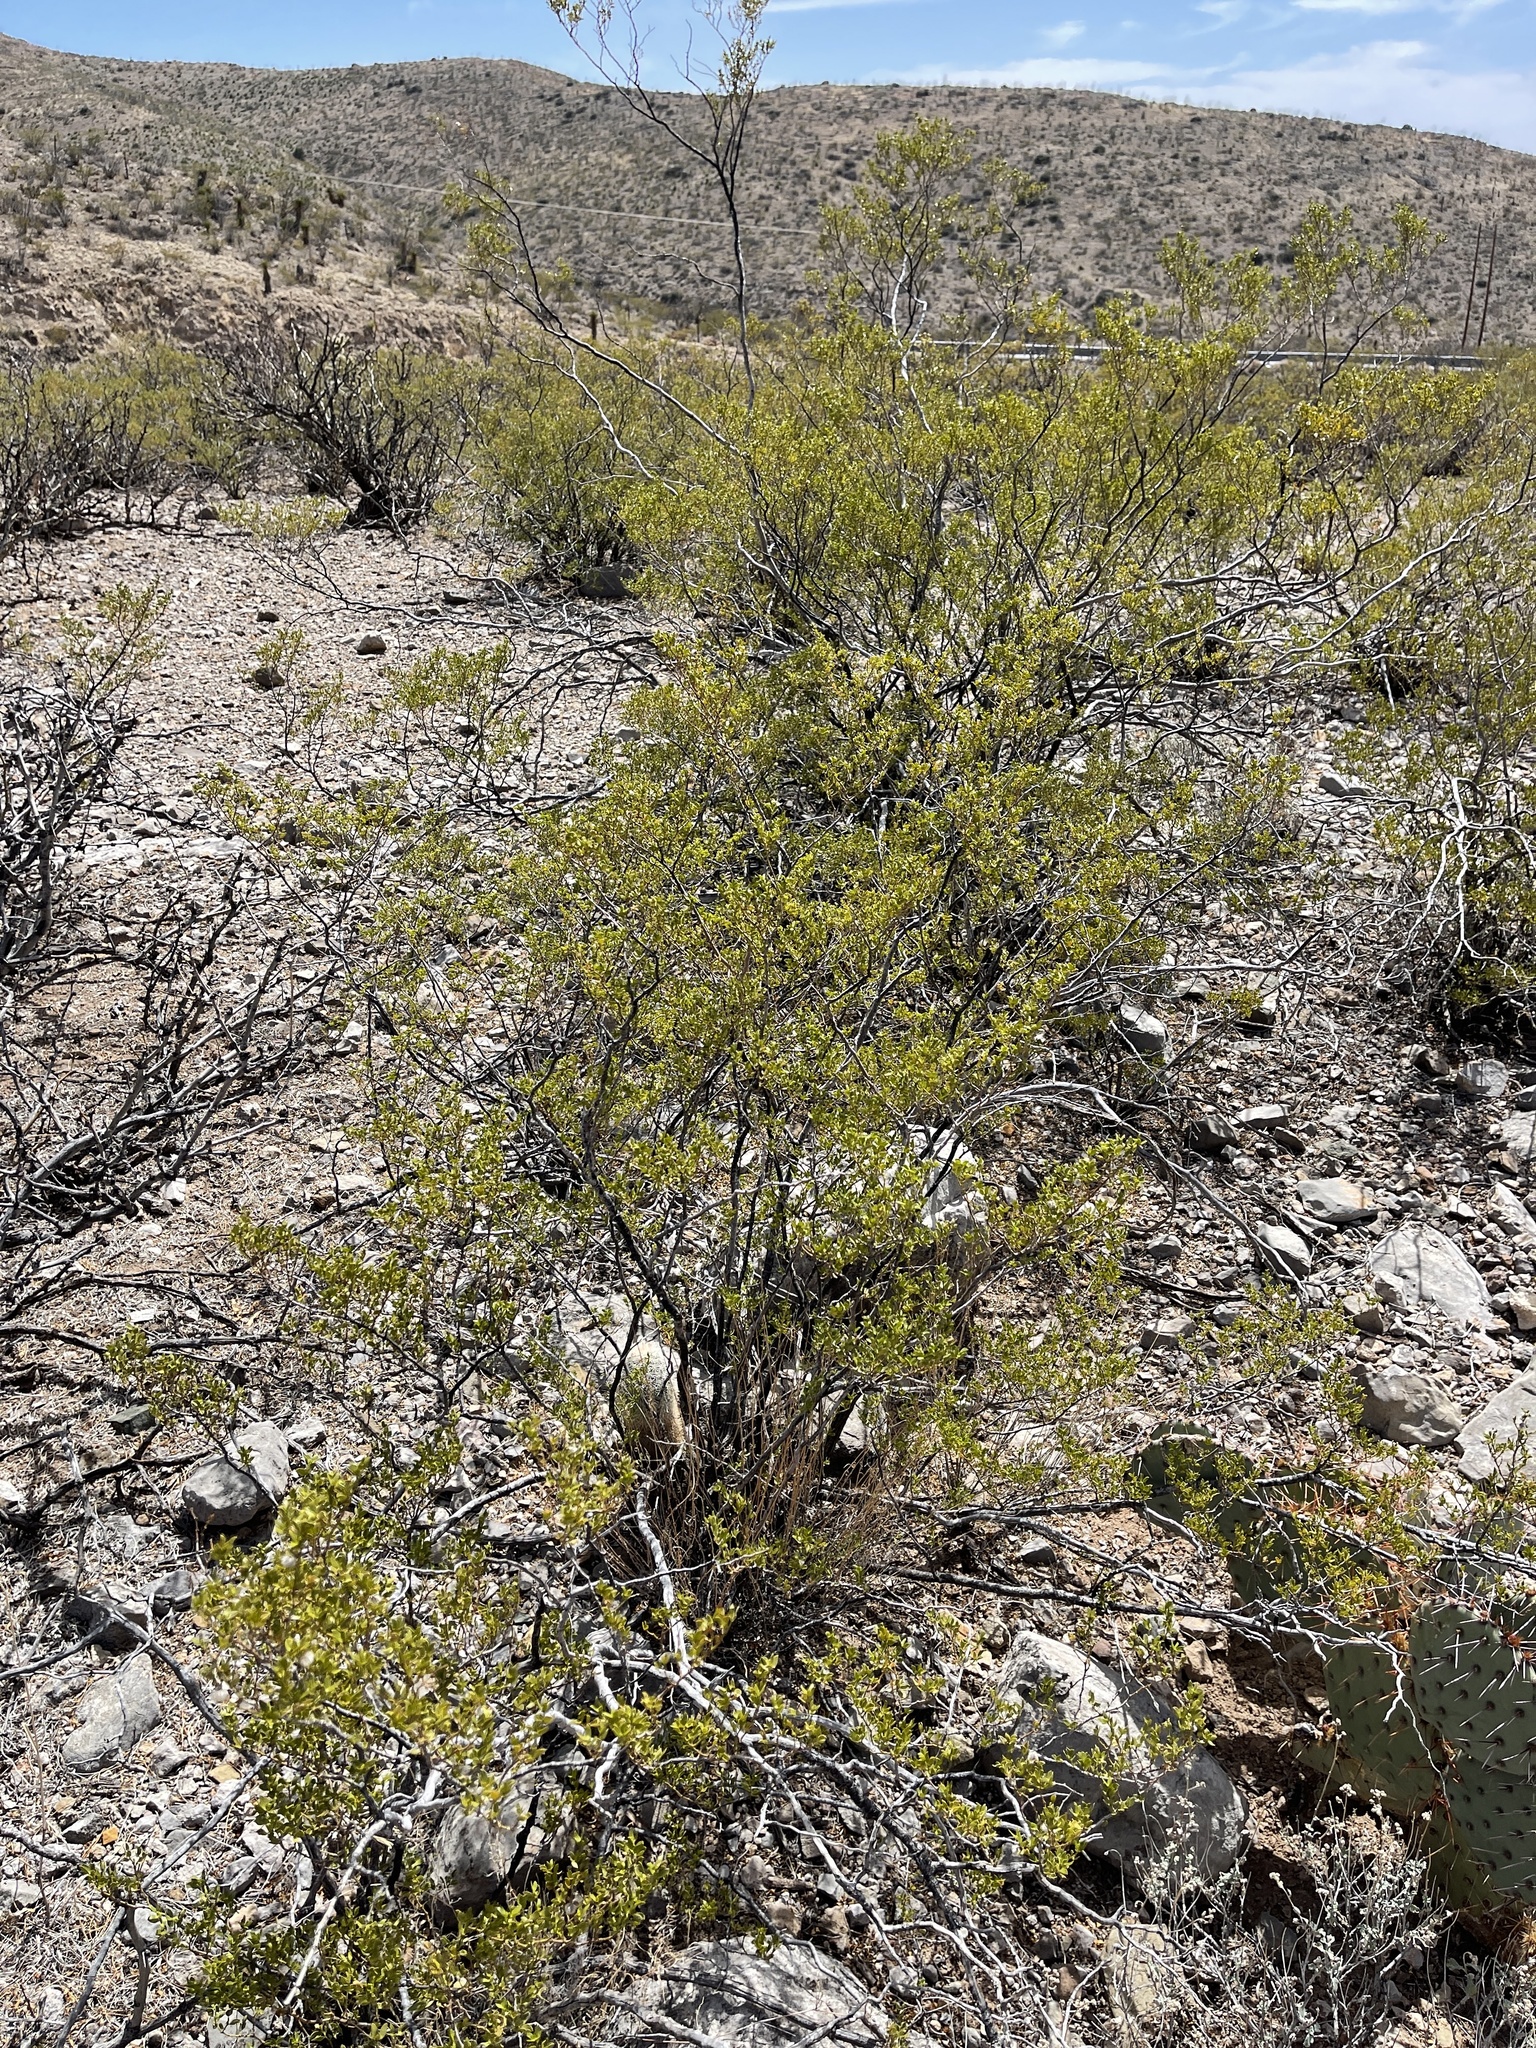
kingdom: Plantae
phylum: Tracheophyta
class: Magnoliopsida
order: Zygophyllales
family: Zygophyllaceae
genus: Larrea
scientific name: Larrea tridentata
